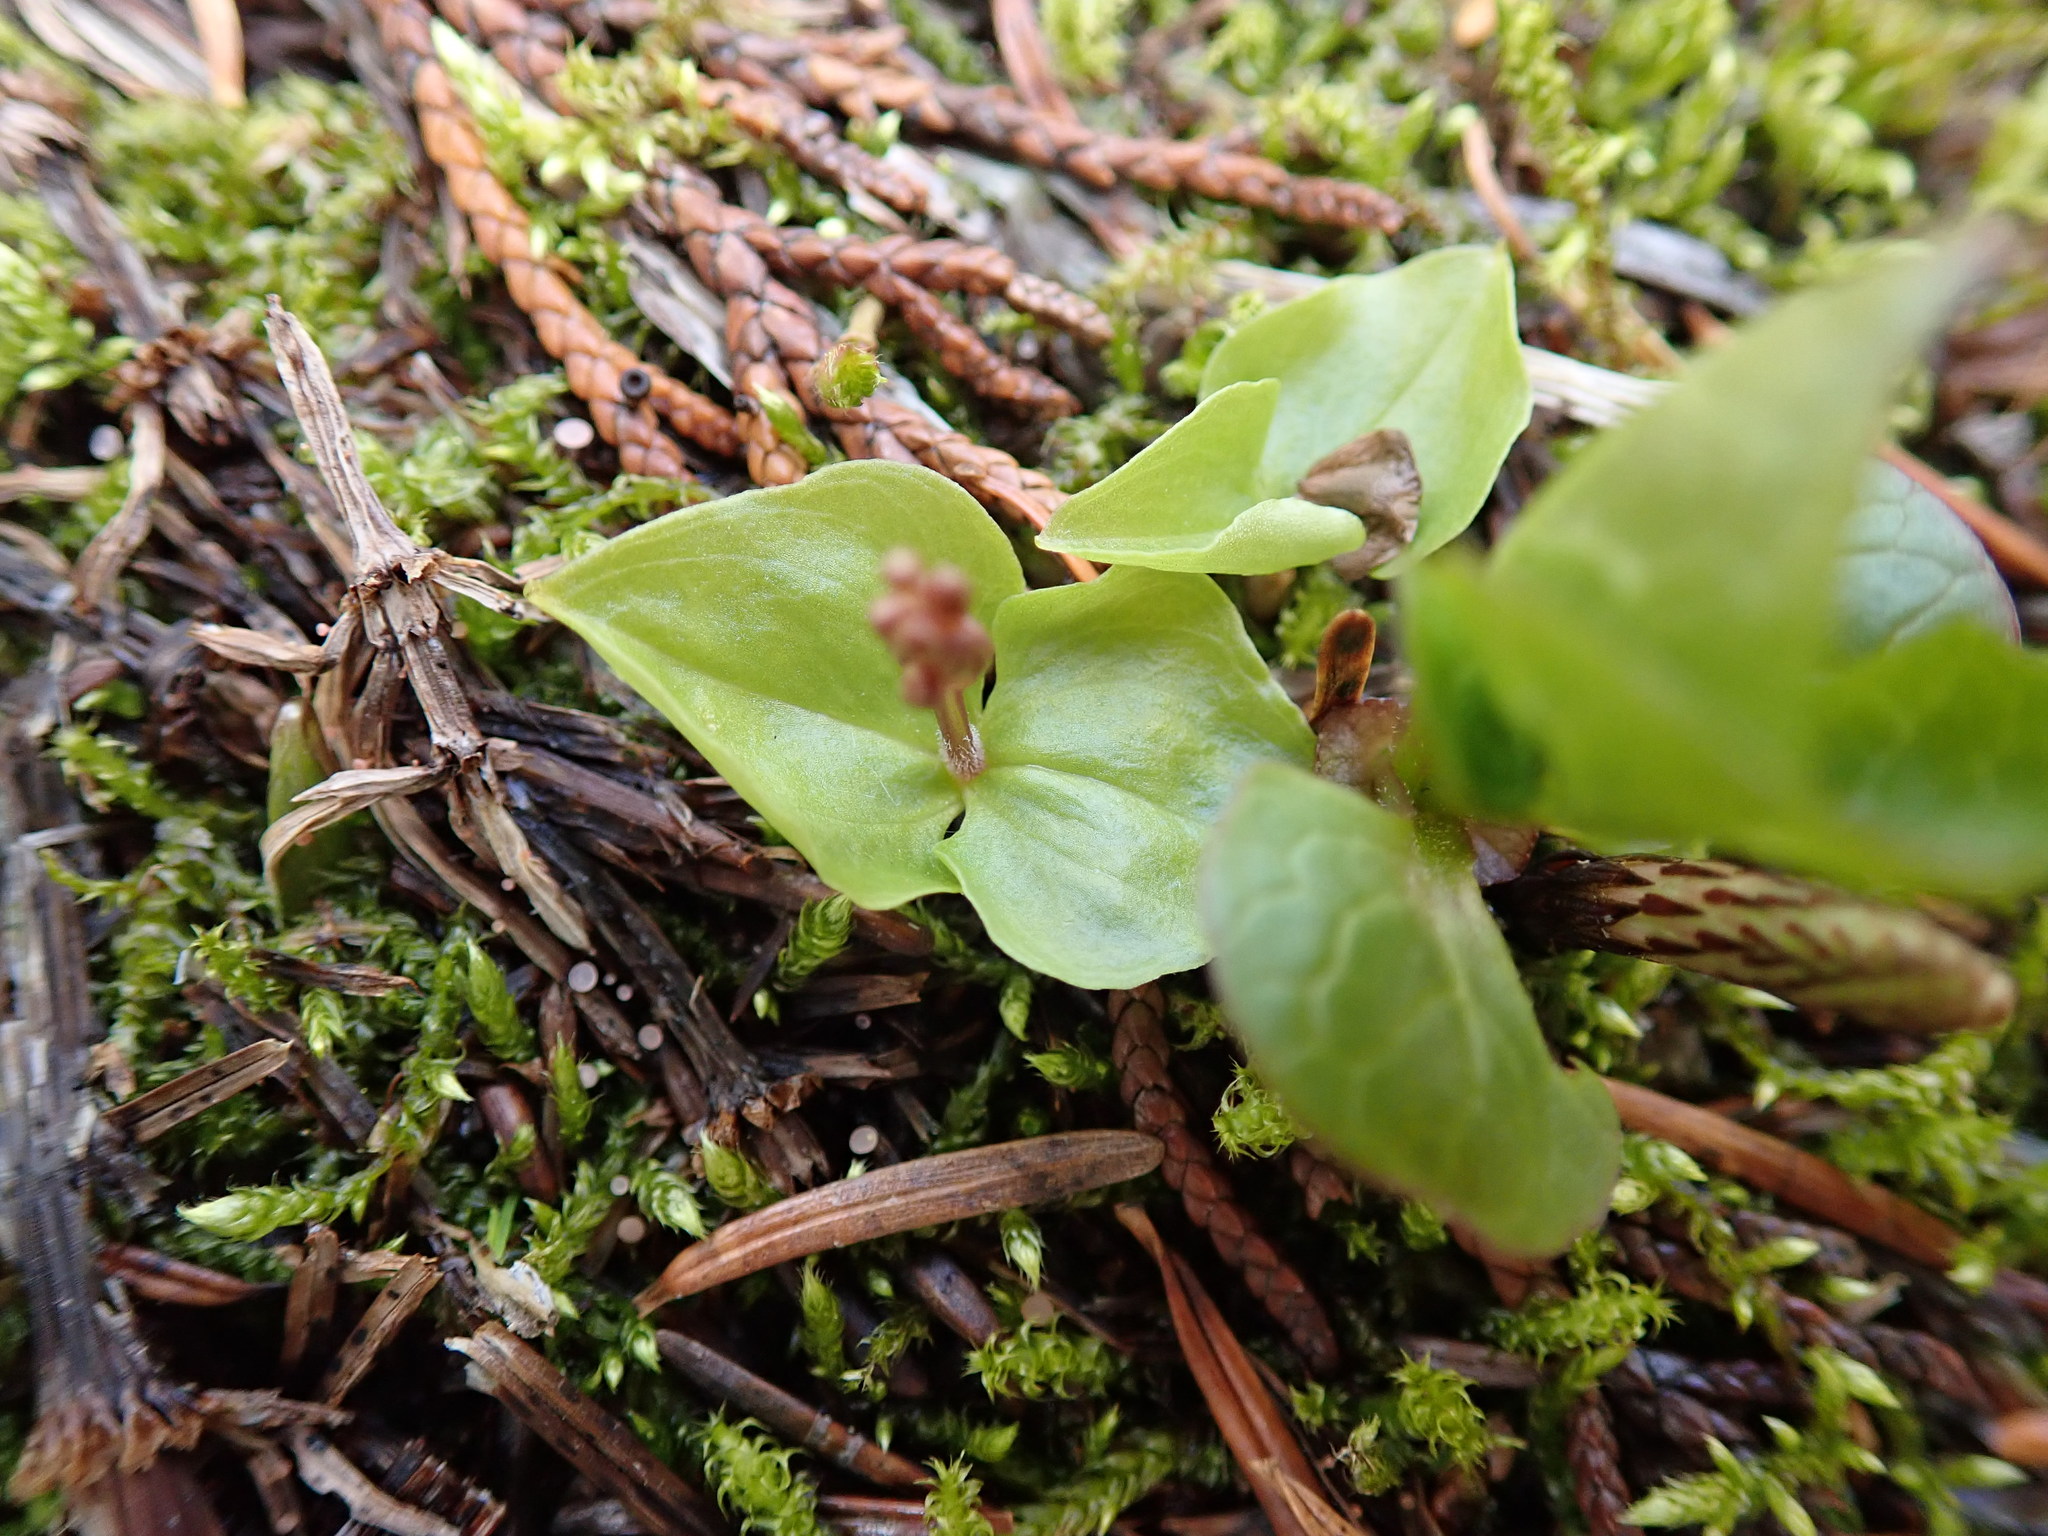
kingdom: Plantae
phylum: Tracheophyta
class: Liliopsida
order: Asparagales
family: Orchidaceae
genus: Neottia
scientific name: Neottia cordata
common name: Lesser twayblade
